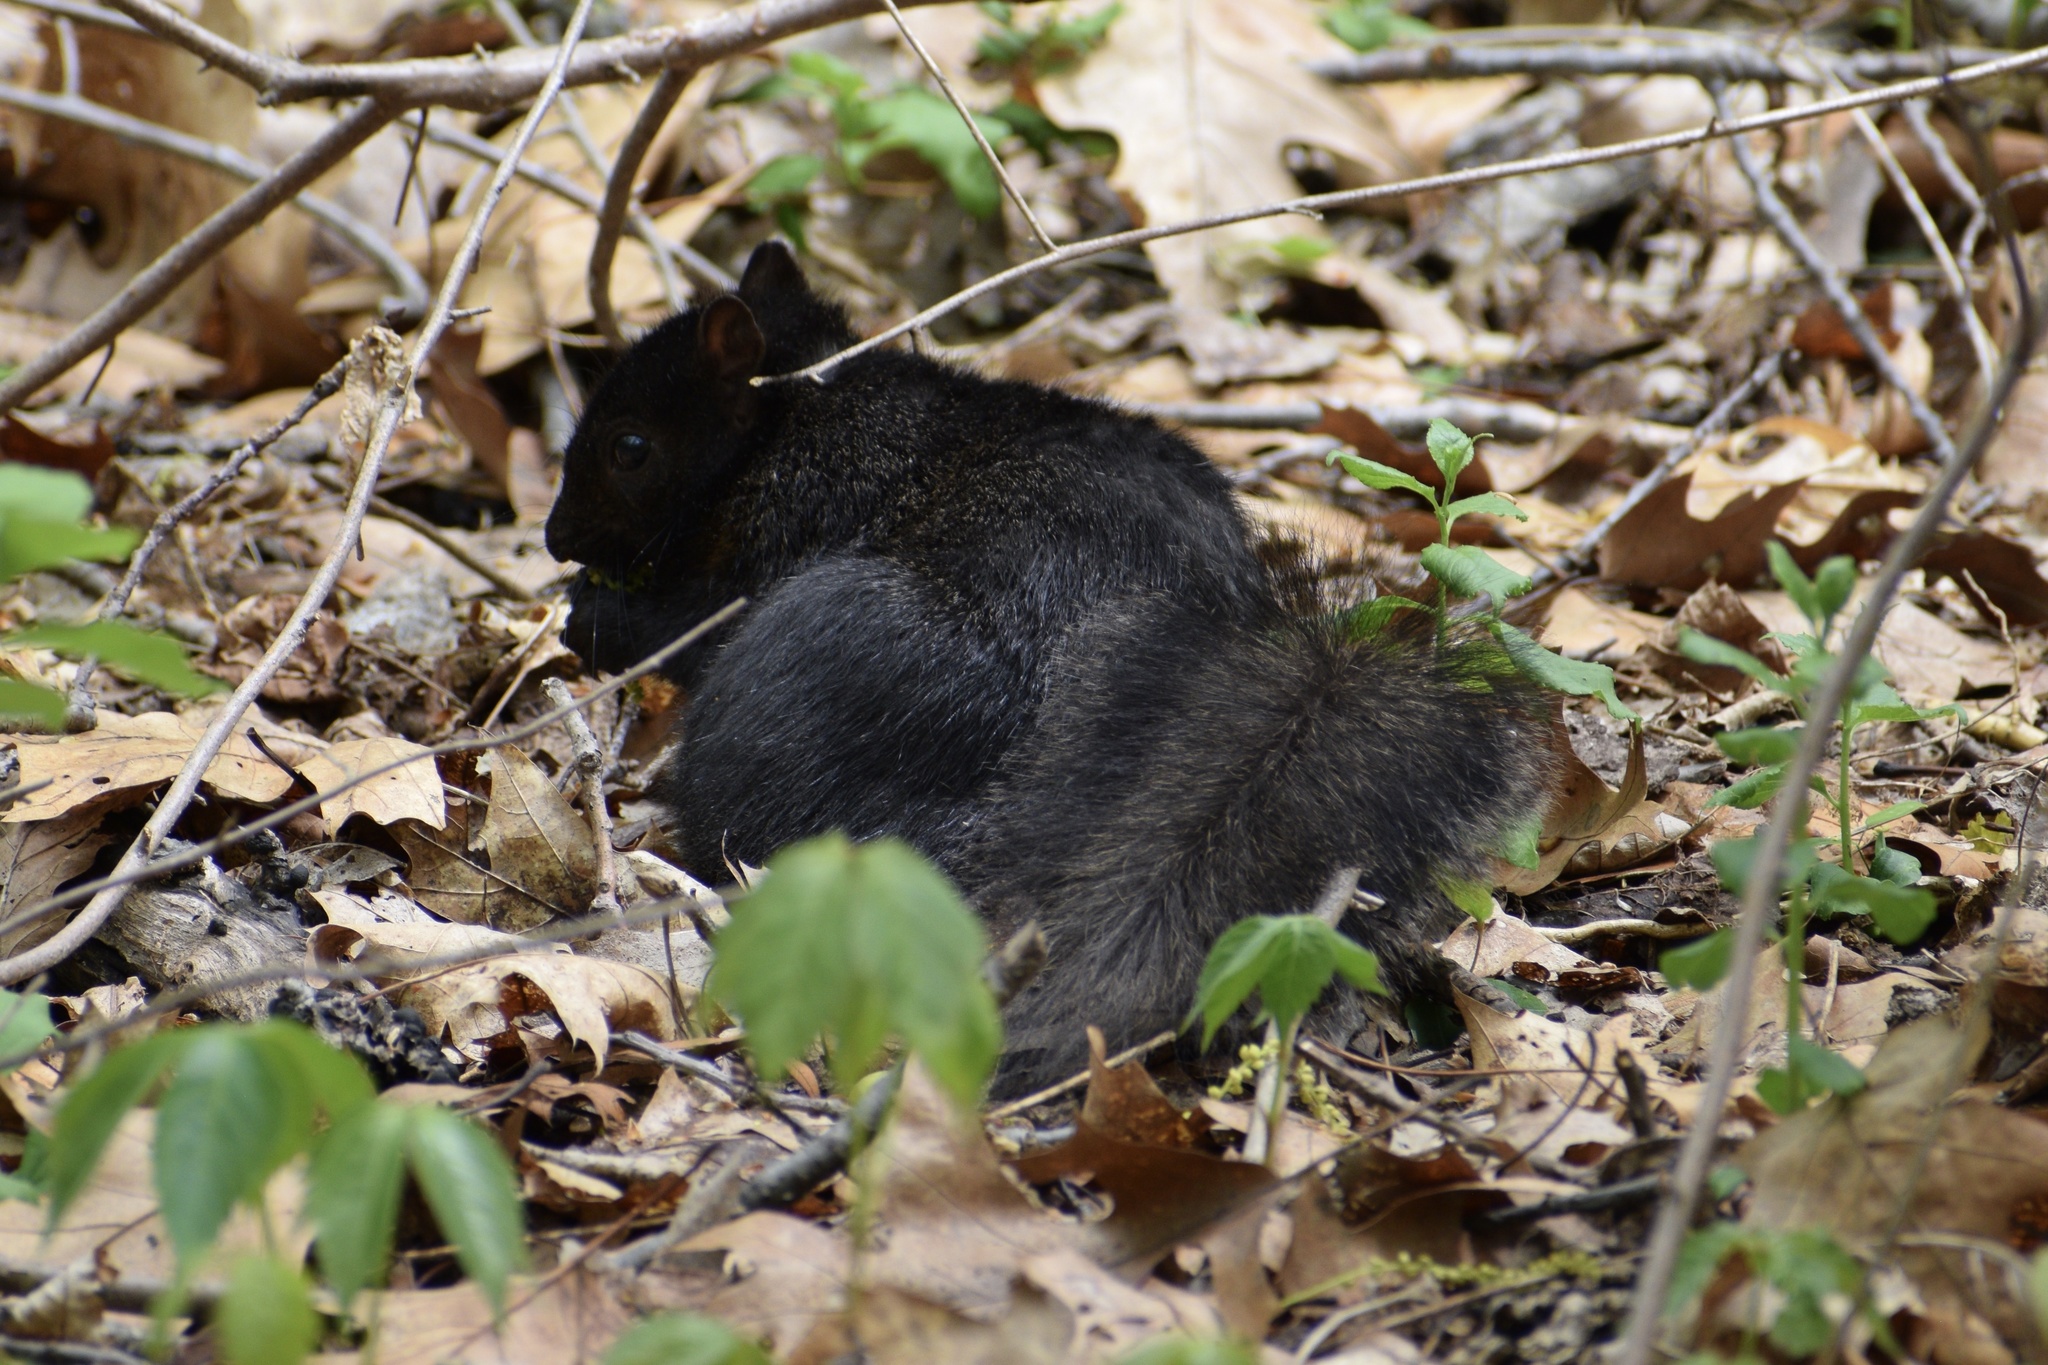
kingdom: Animalia
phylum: Chordata
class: Mammalia
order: Rodentia
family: Sciuridae
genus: Sciurus
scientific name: Sciurus carolinensis
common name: Eastern gray squirrel
